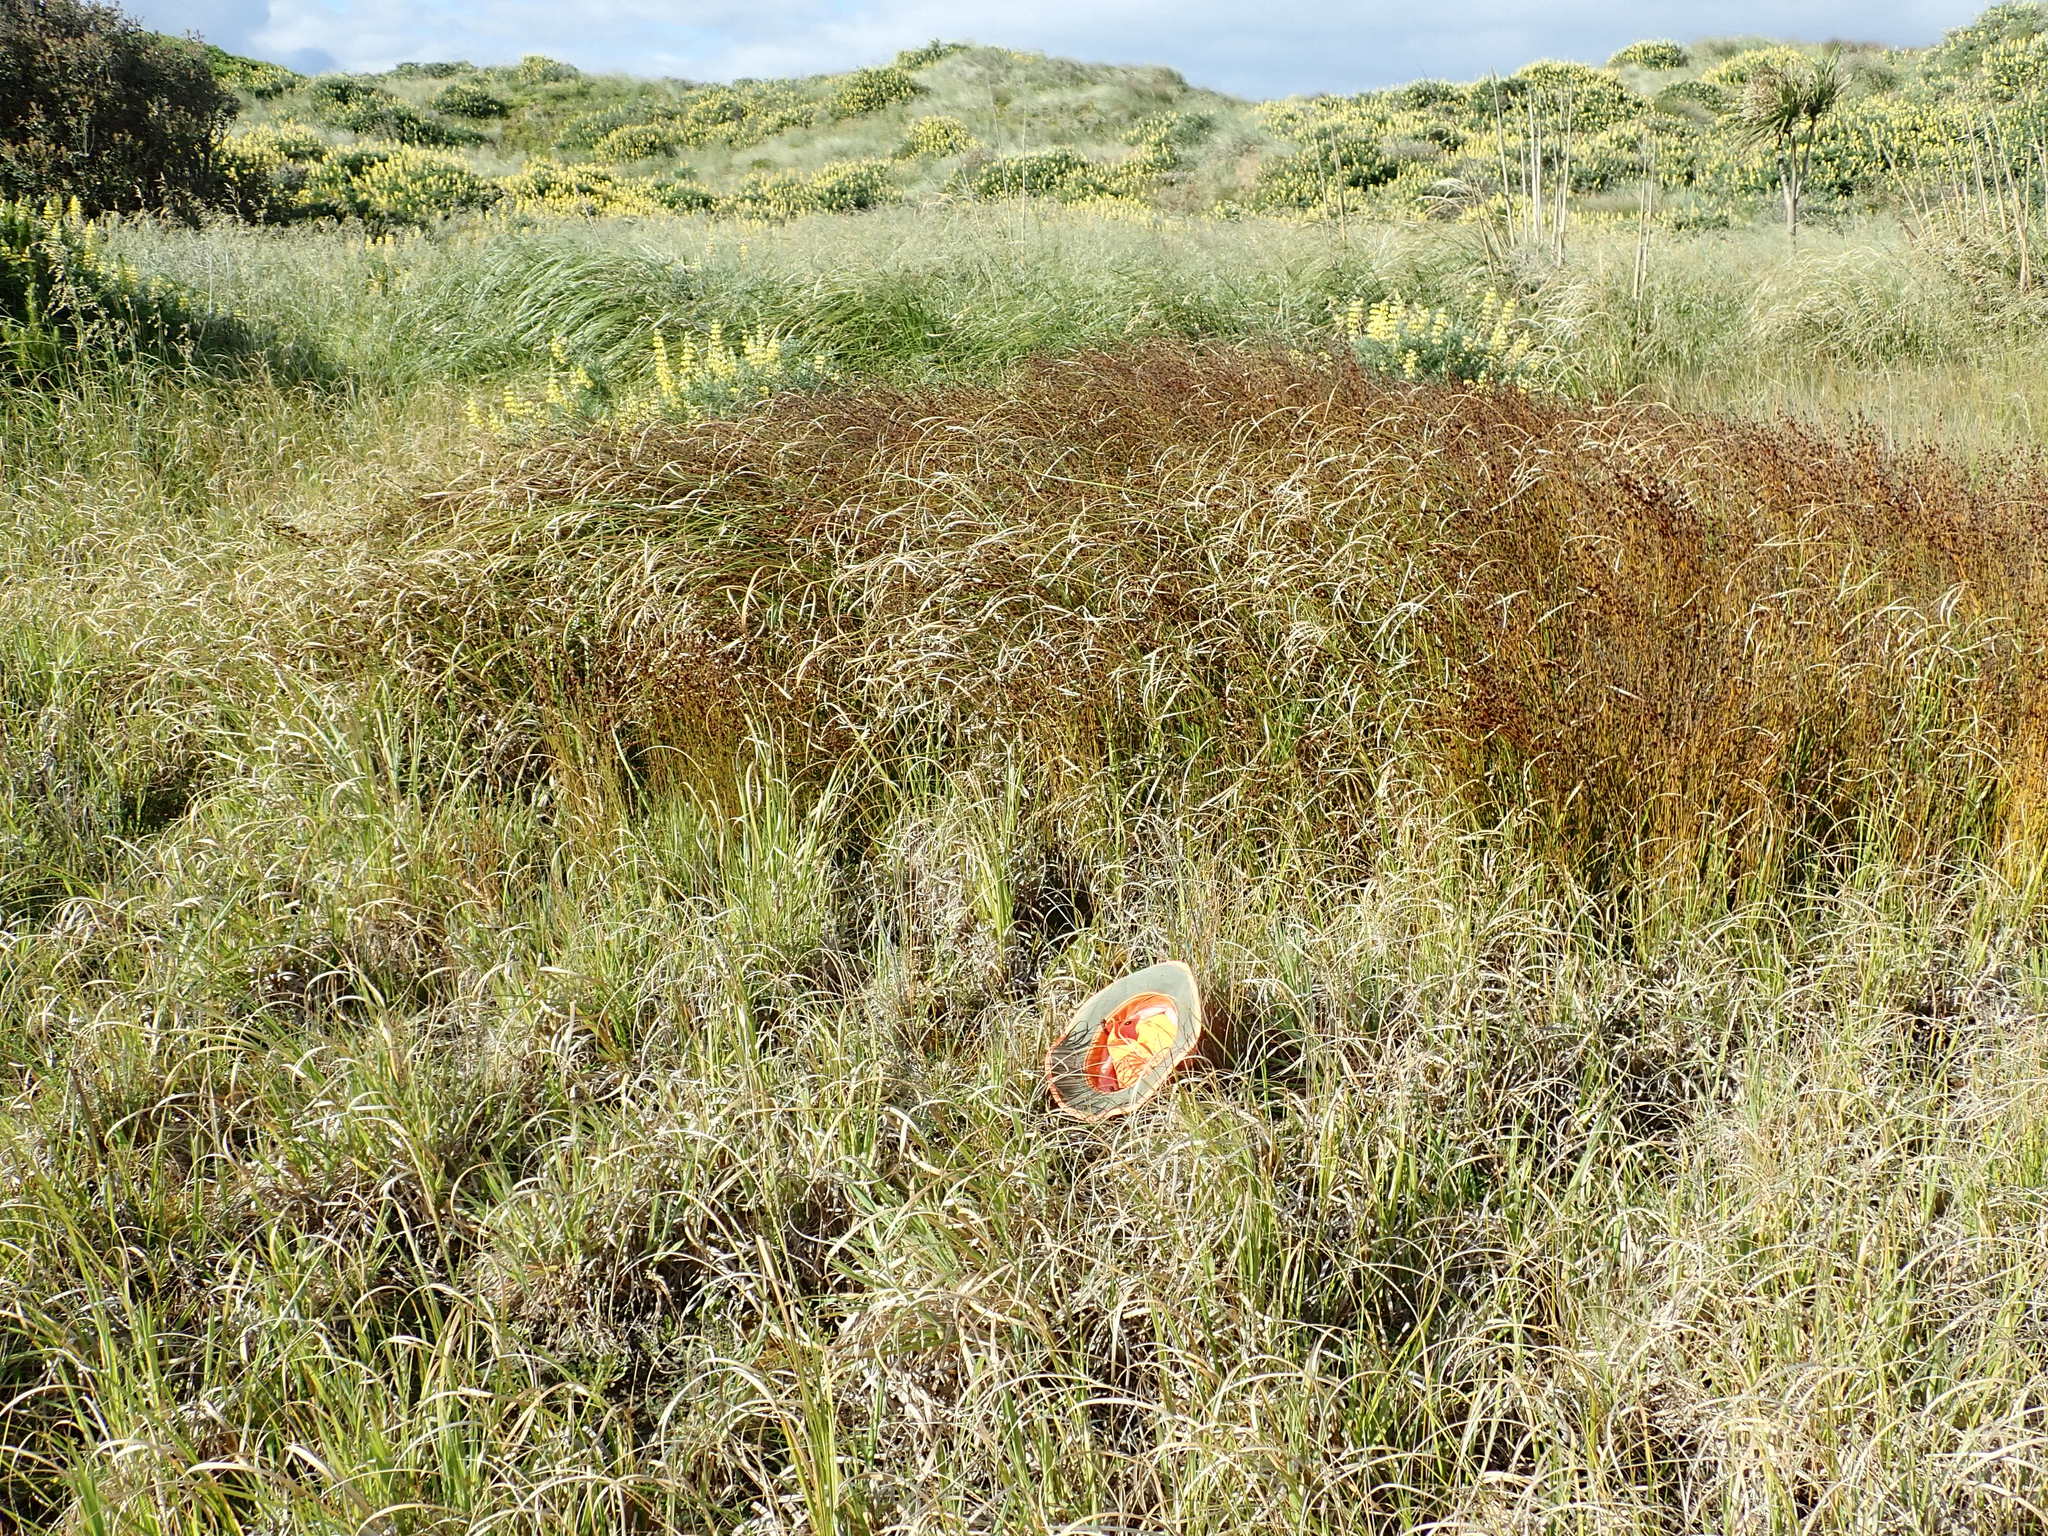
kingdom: Plantae
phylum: Tracheophyta
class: Magnoliopsida
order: Gentianales
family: Rubiaceae
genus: Coprosma
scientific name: Coprosma acerosa
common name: Sand coprosma
